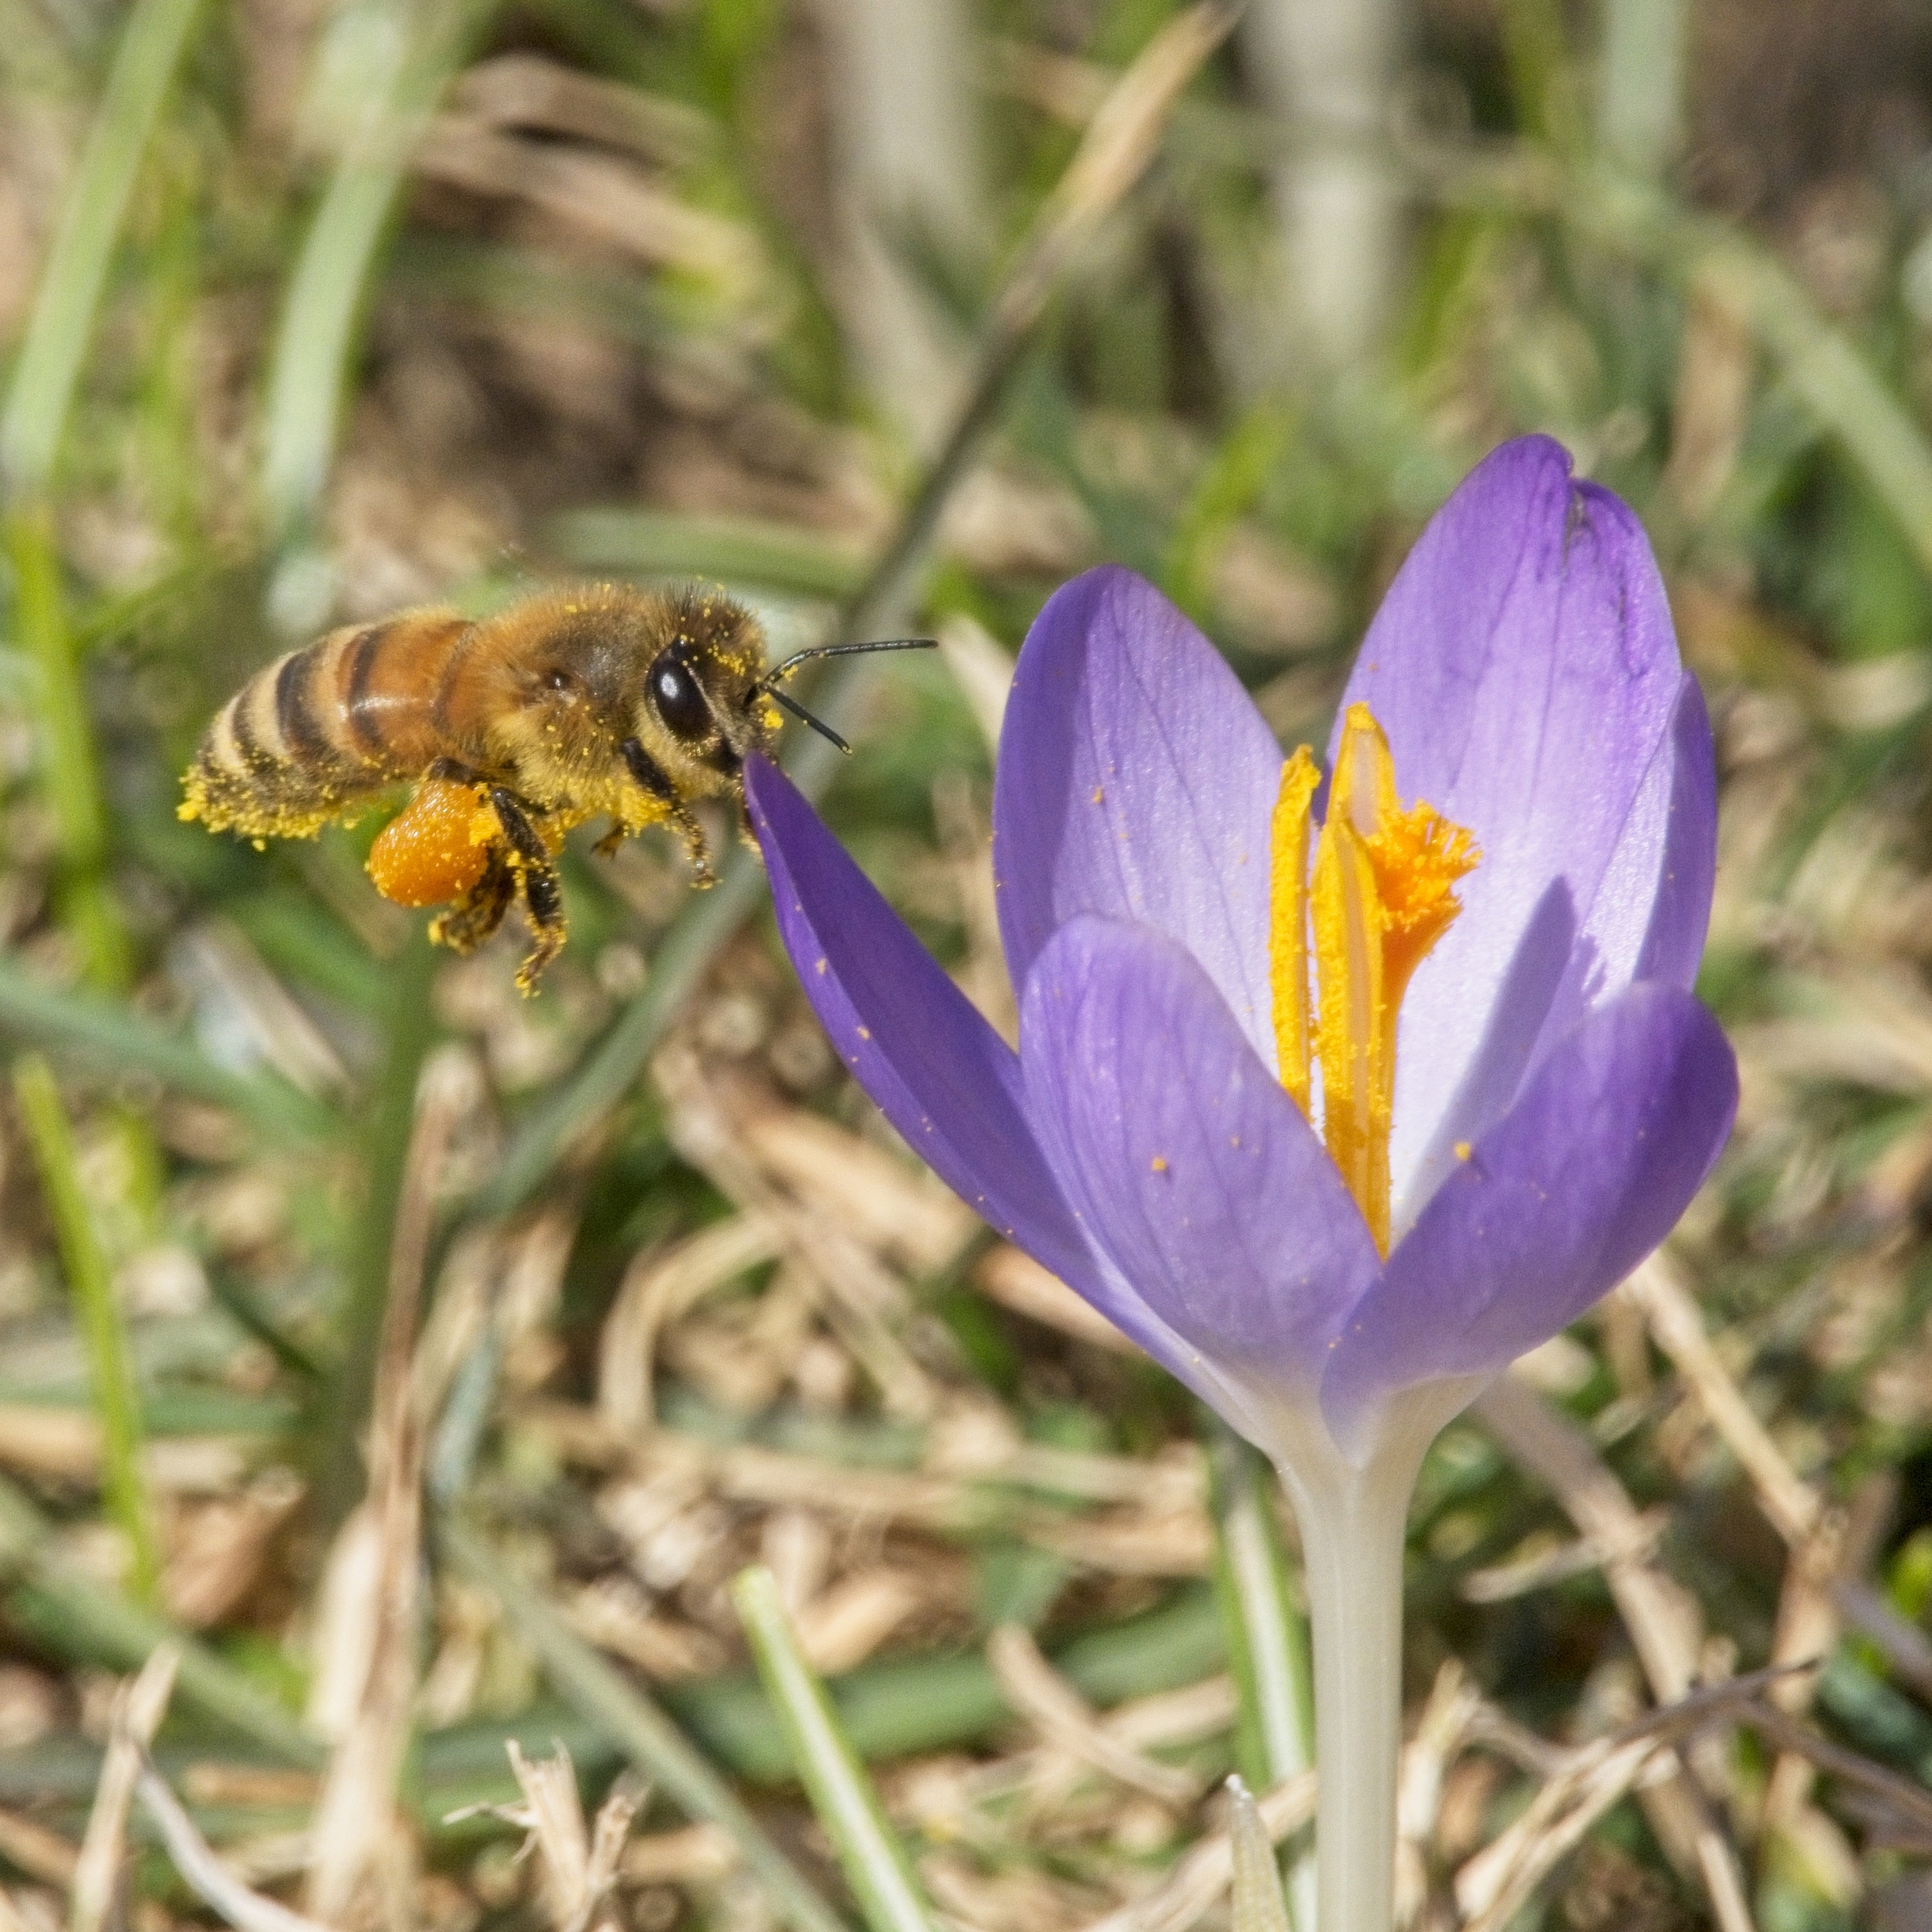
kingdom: Animalia
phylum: Arthropoda
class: Insecta
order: Hymenoptera
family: Apidae
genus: Apis
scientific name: Apis mellifera
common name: Honey bee
